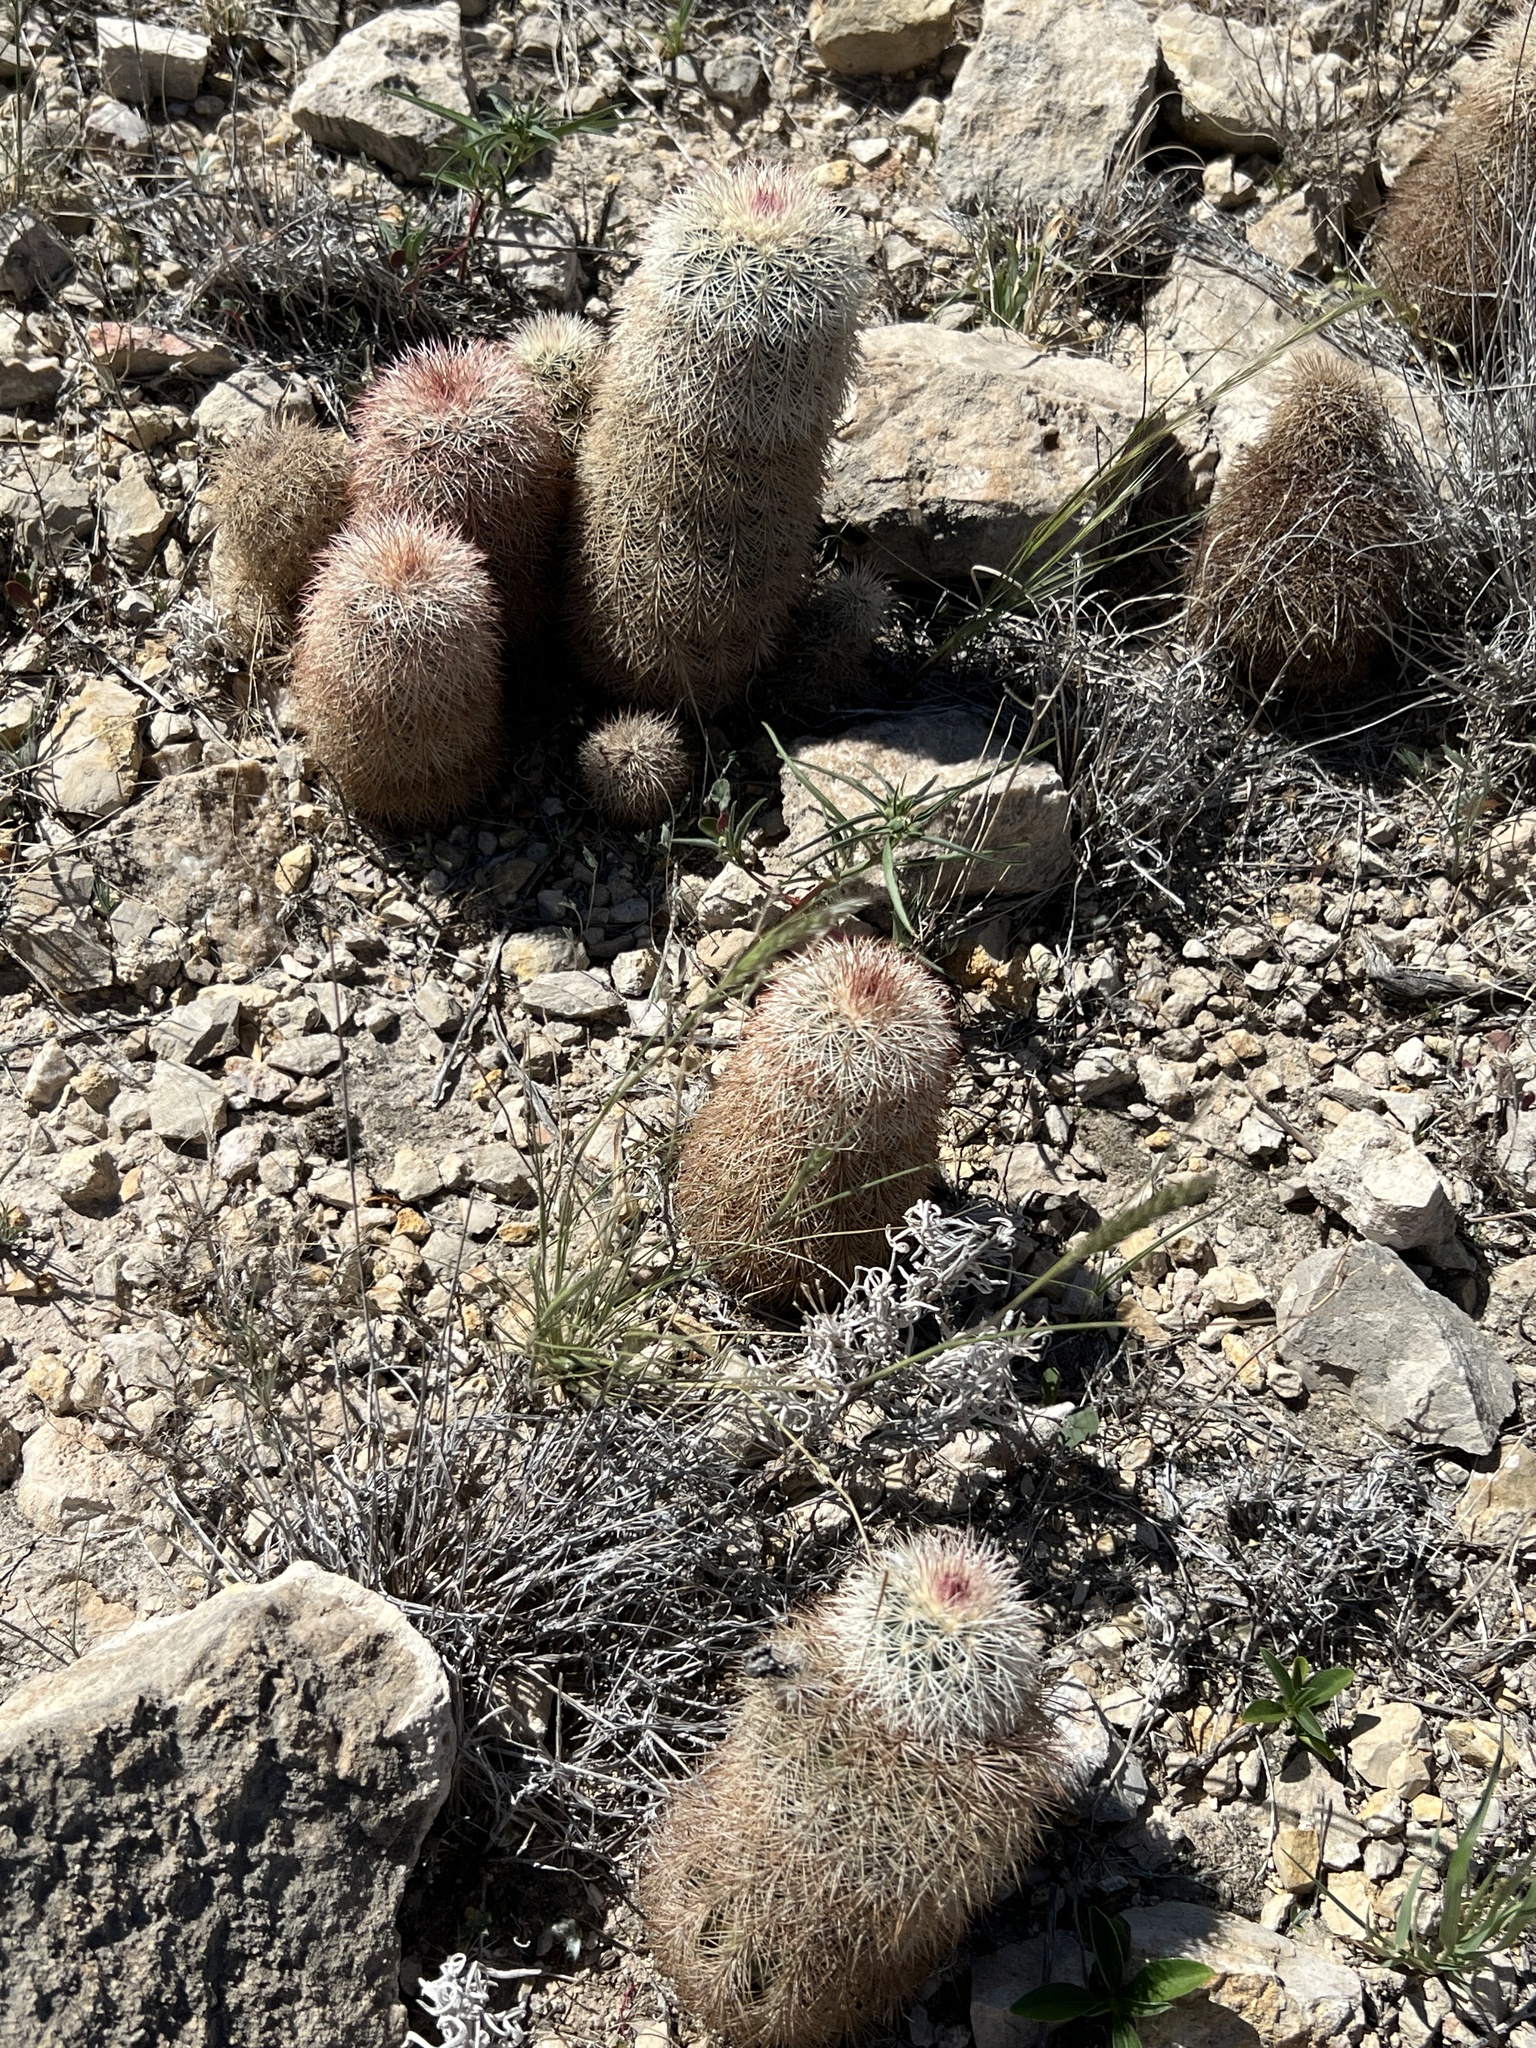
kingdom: Plantae
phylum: Tracheophyta
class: Magnoliopsida
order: Caryophyllales
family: Cactaceae
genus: Echinocereus
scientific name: Echinocereus dasyacanthus
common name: Spiny hedgehog cactus
